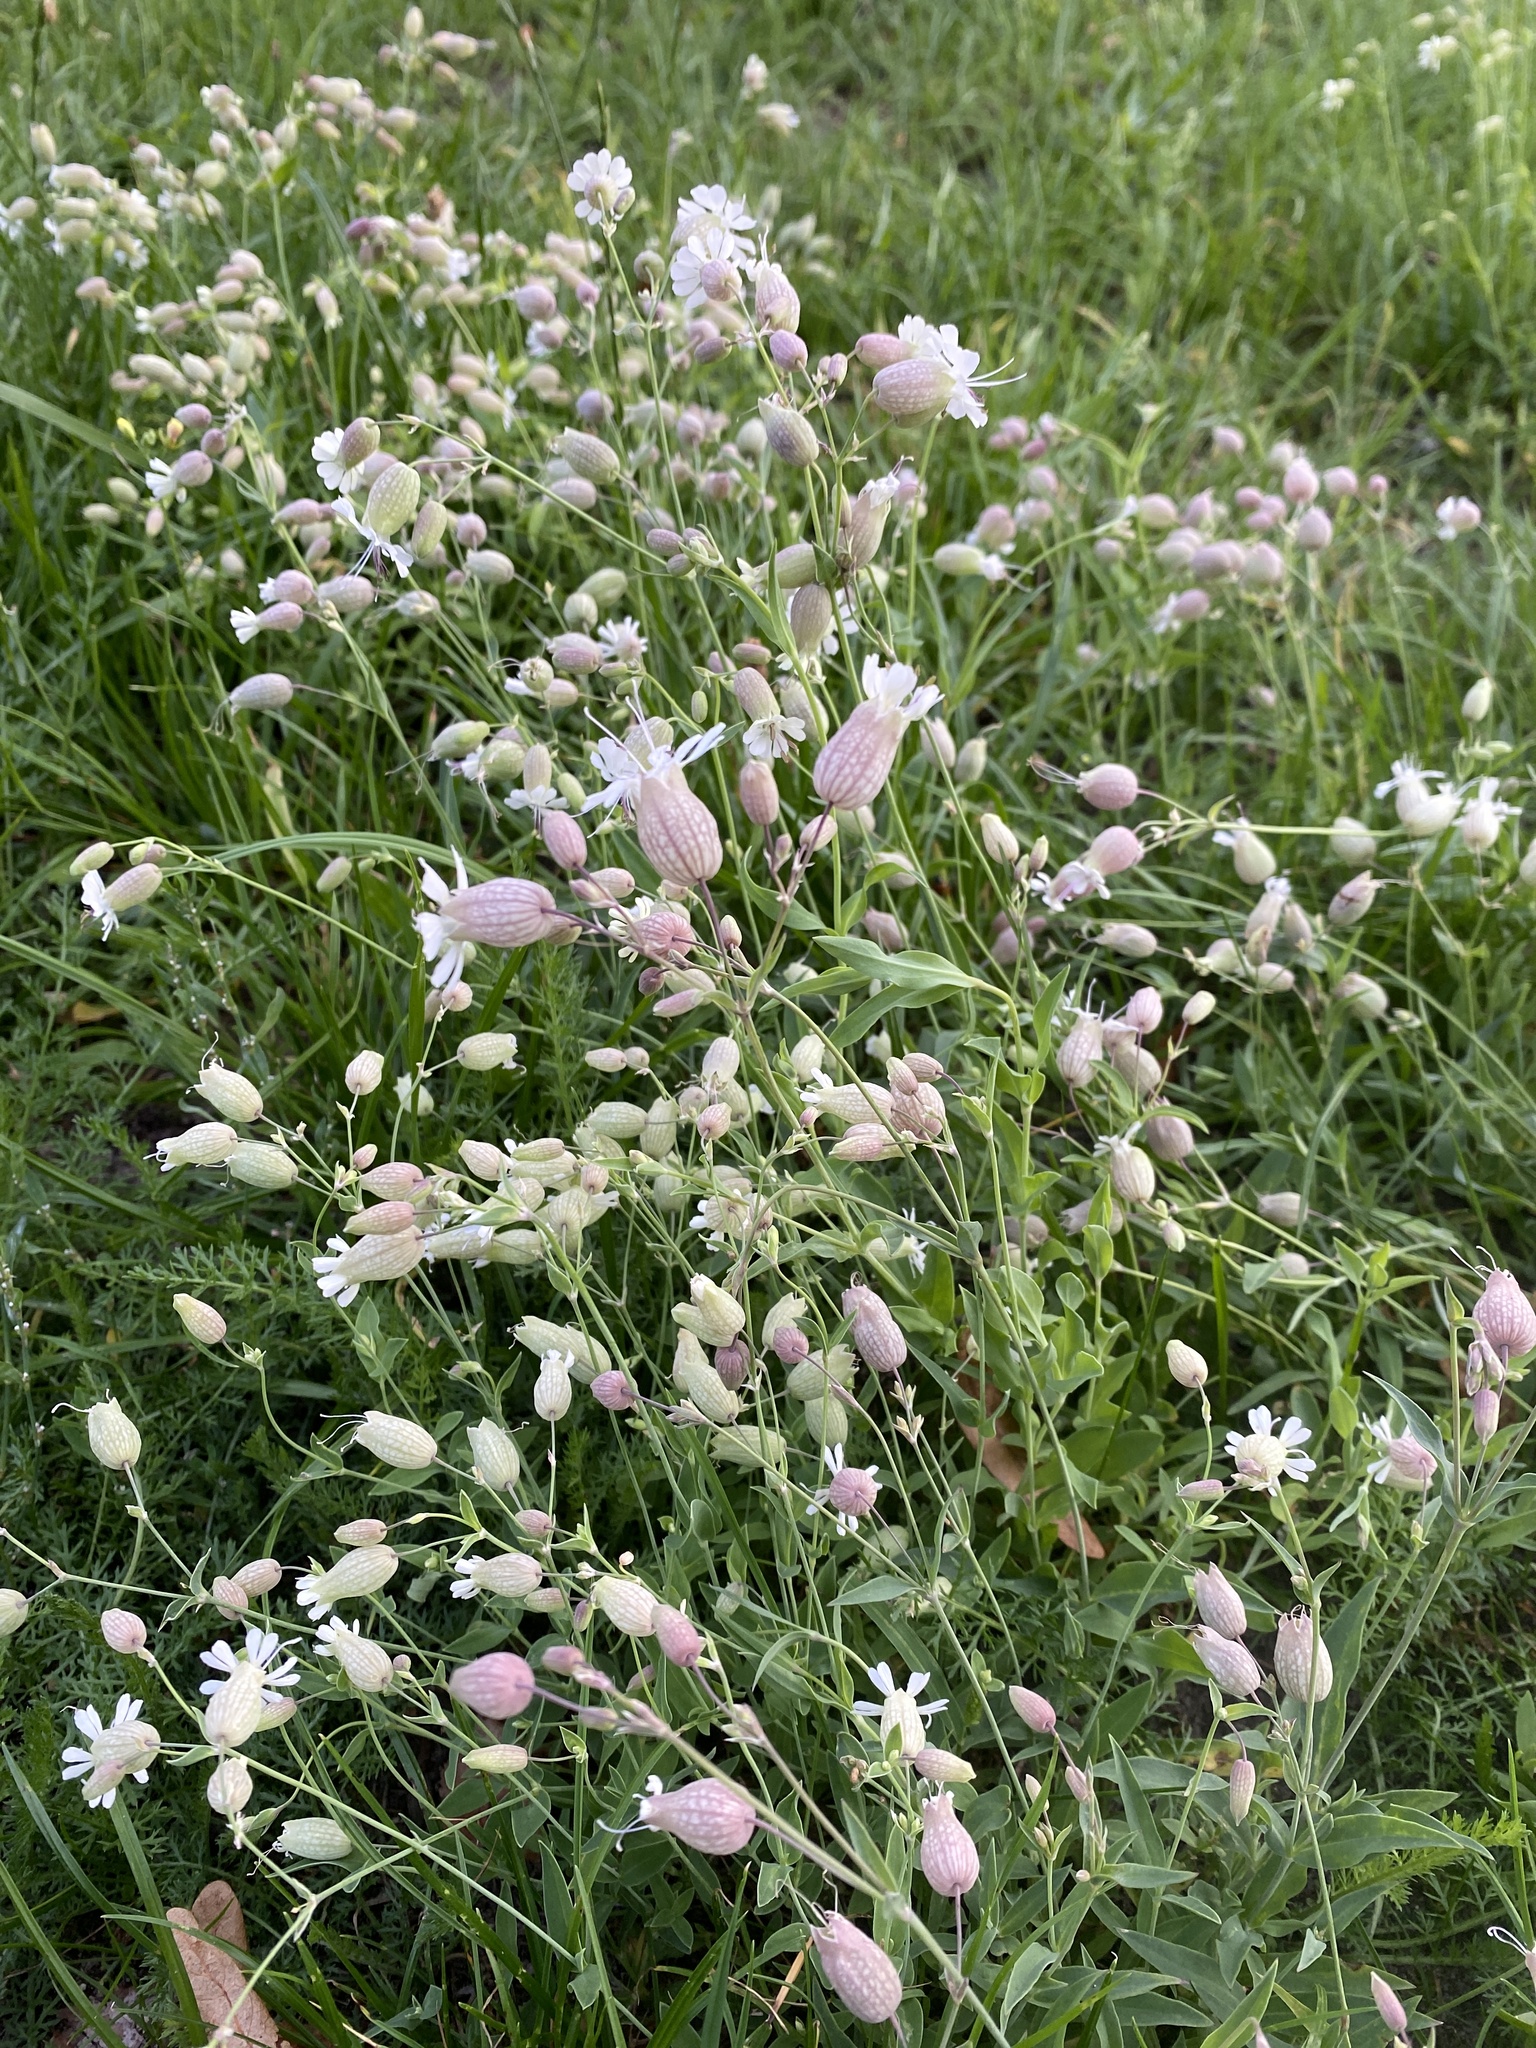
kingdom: Plantae
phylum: Tracheophyta
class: Magnoliopsida
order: Caryophyllales
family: Caryophyllaceae
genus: Silene
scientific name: Silene vulgaris
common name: Bladder campion
